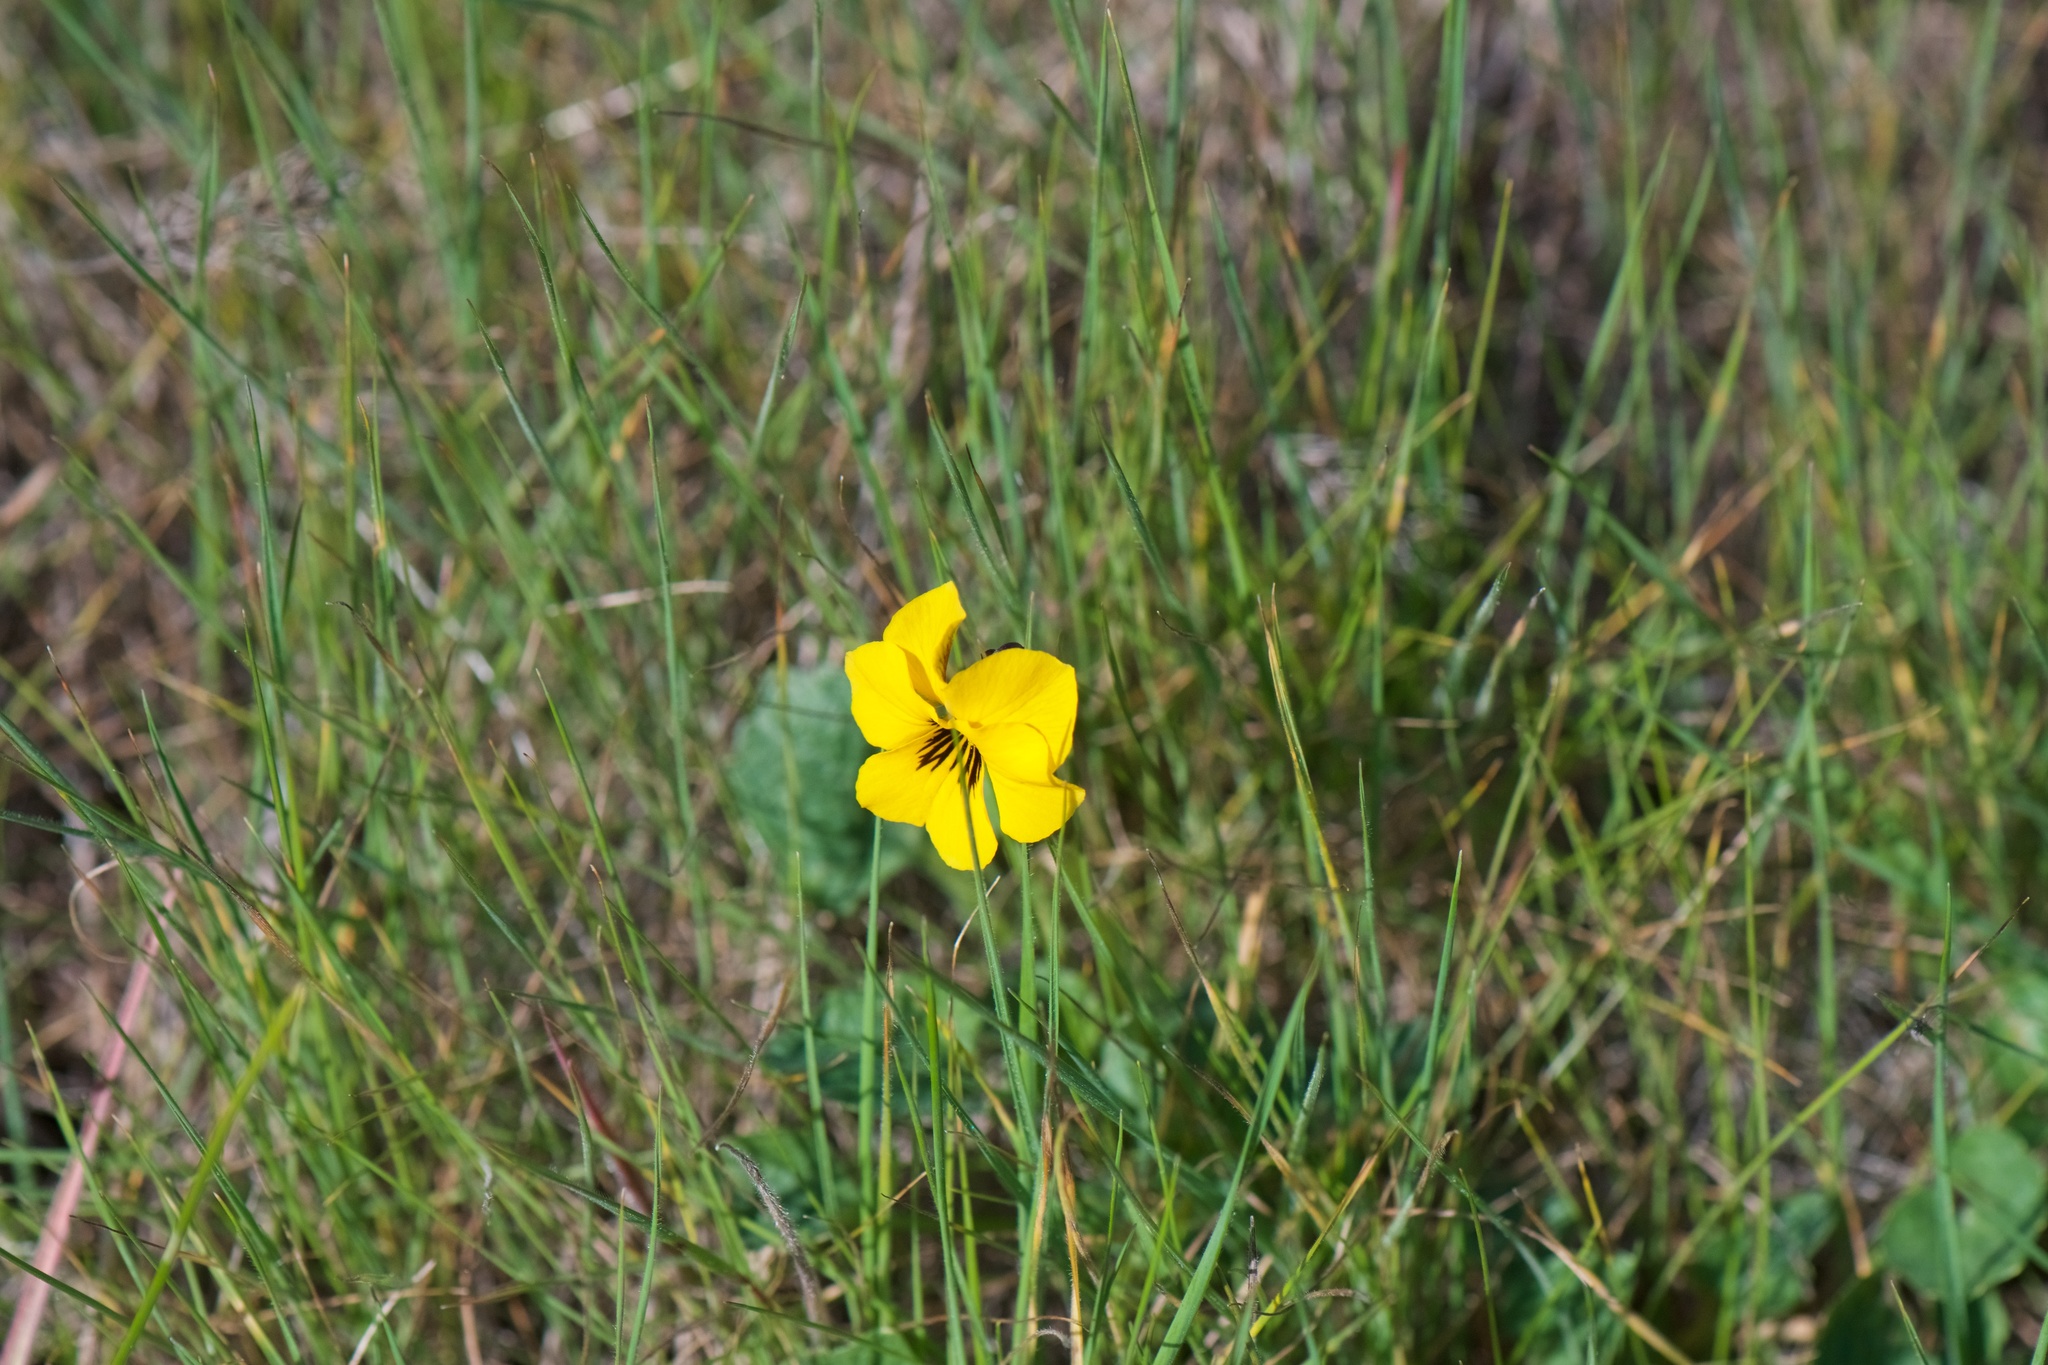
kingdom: Plantae
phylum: Tracheophyta
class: Magnoliopsida
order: Malpighiales
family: Violaceae
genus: Viola
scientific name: Viola pedunculata
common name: California golden violet
